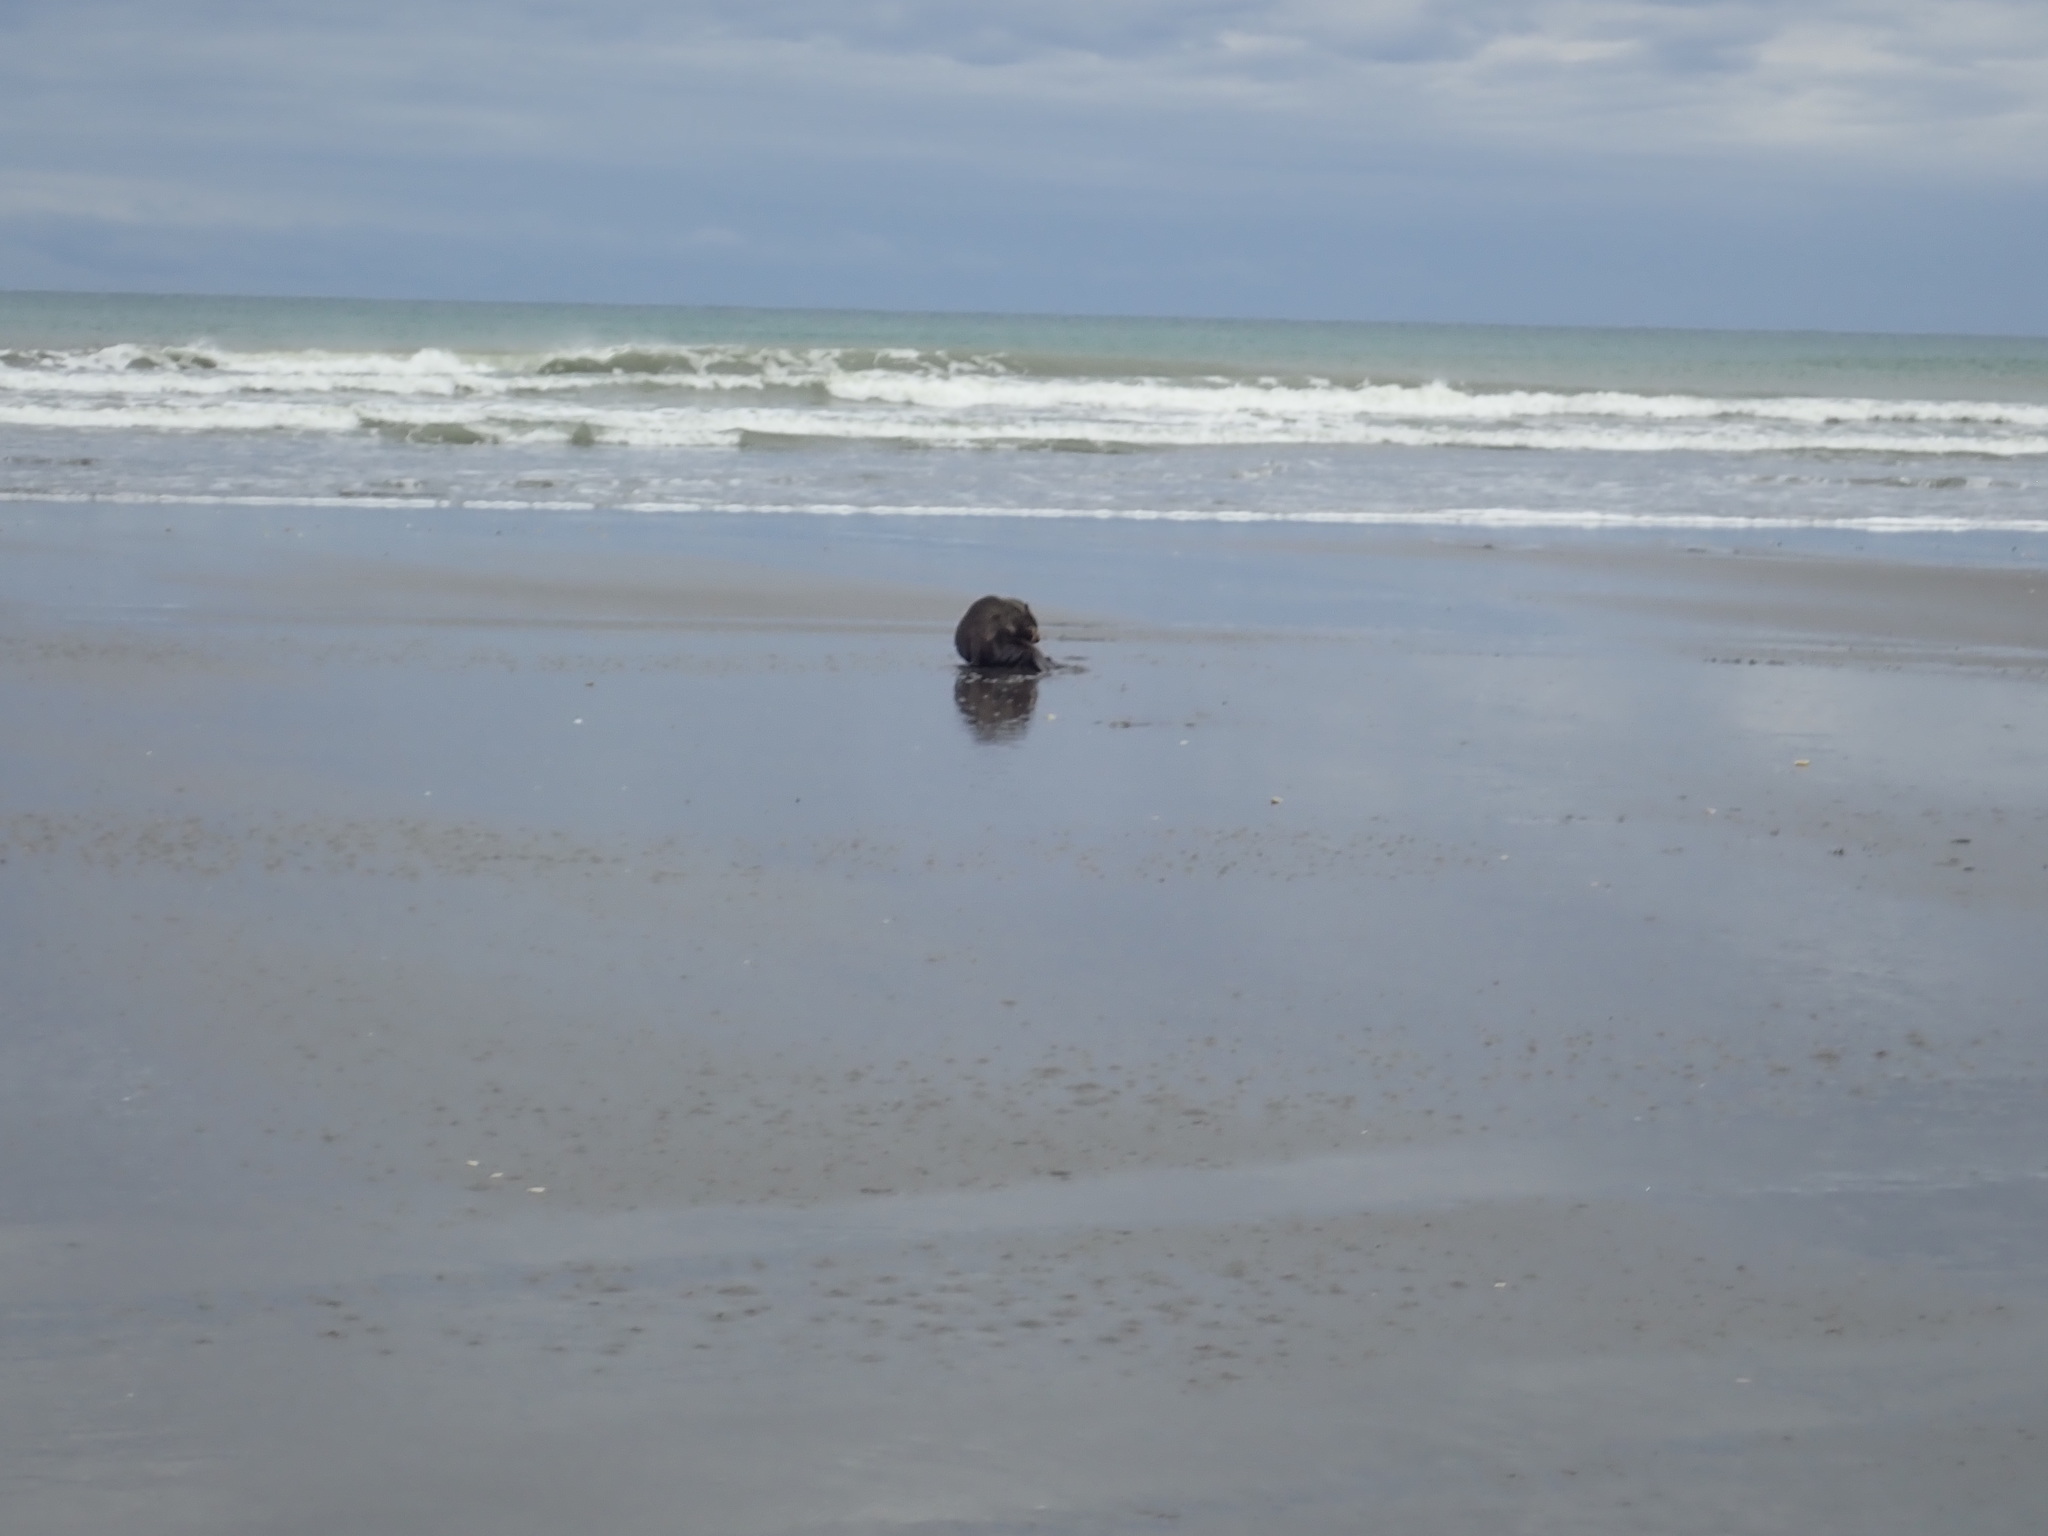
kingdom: Animalia
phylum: Chordata
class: Mammalia
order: Carnivora
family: Otariidae
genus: Arctocephalus
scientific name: Arctocephalus forsteri
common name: New zealand fur seal
